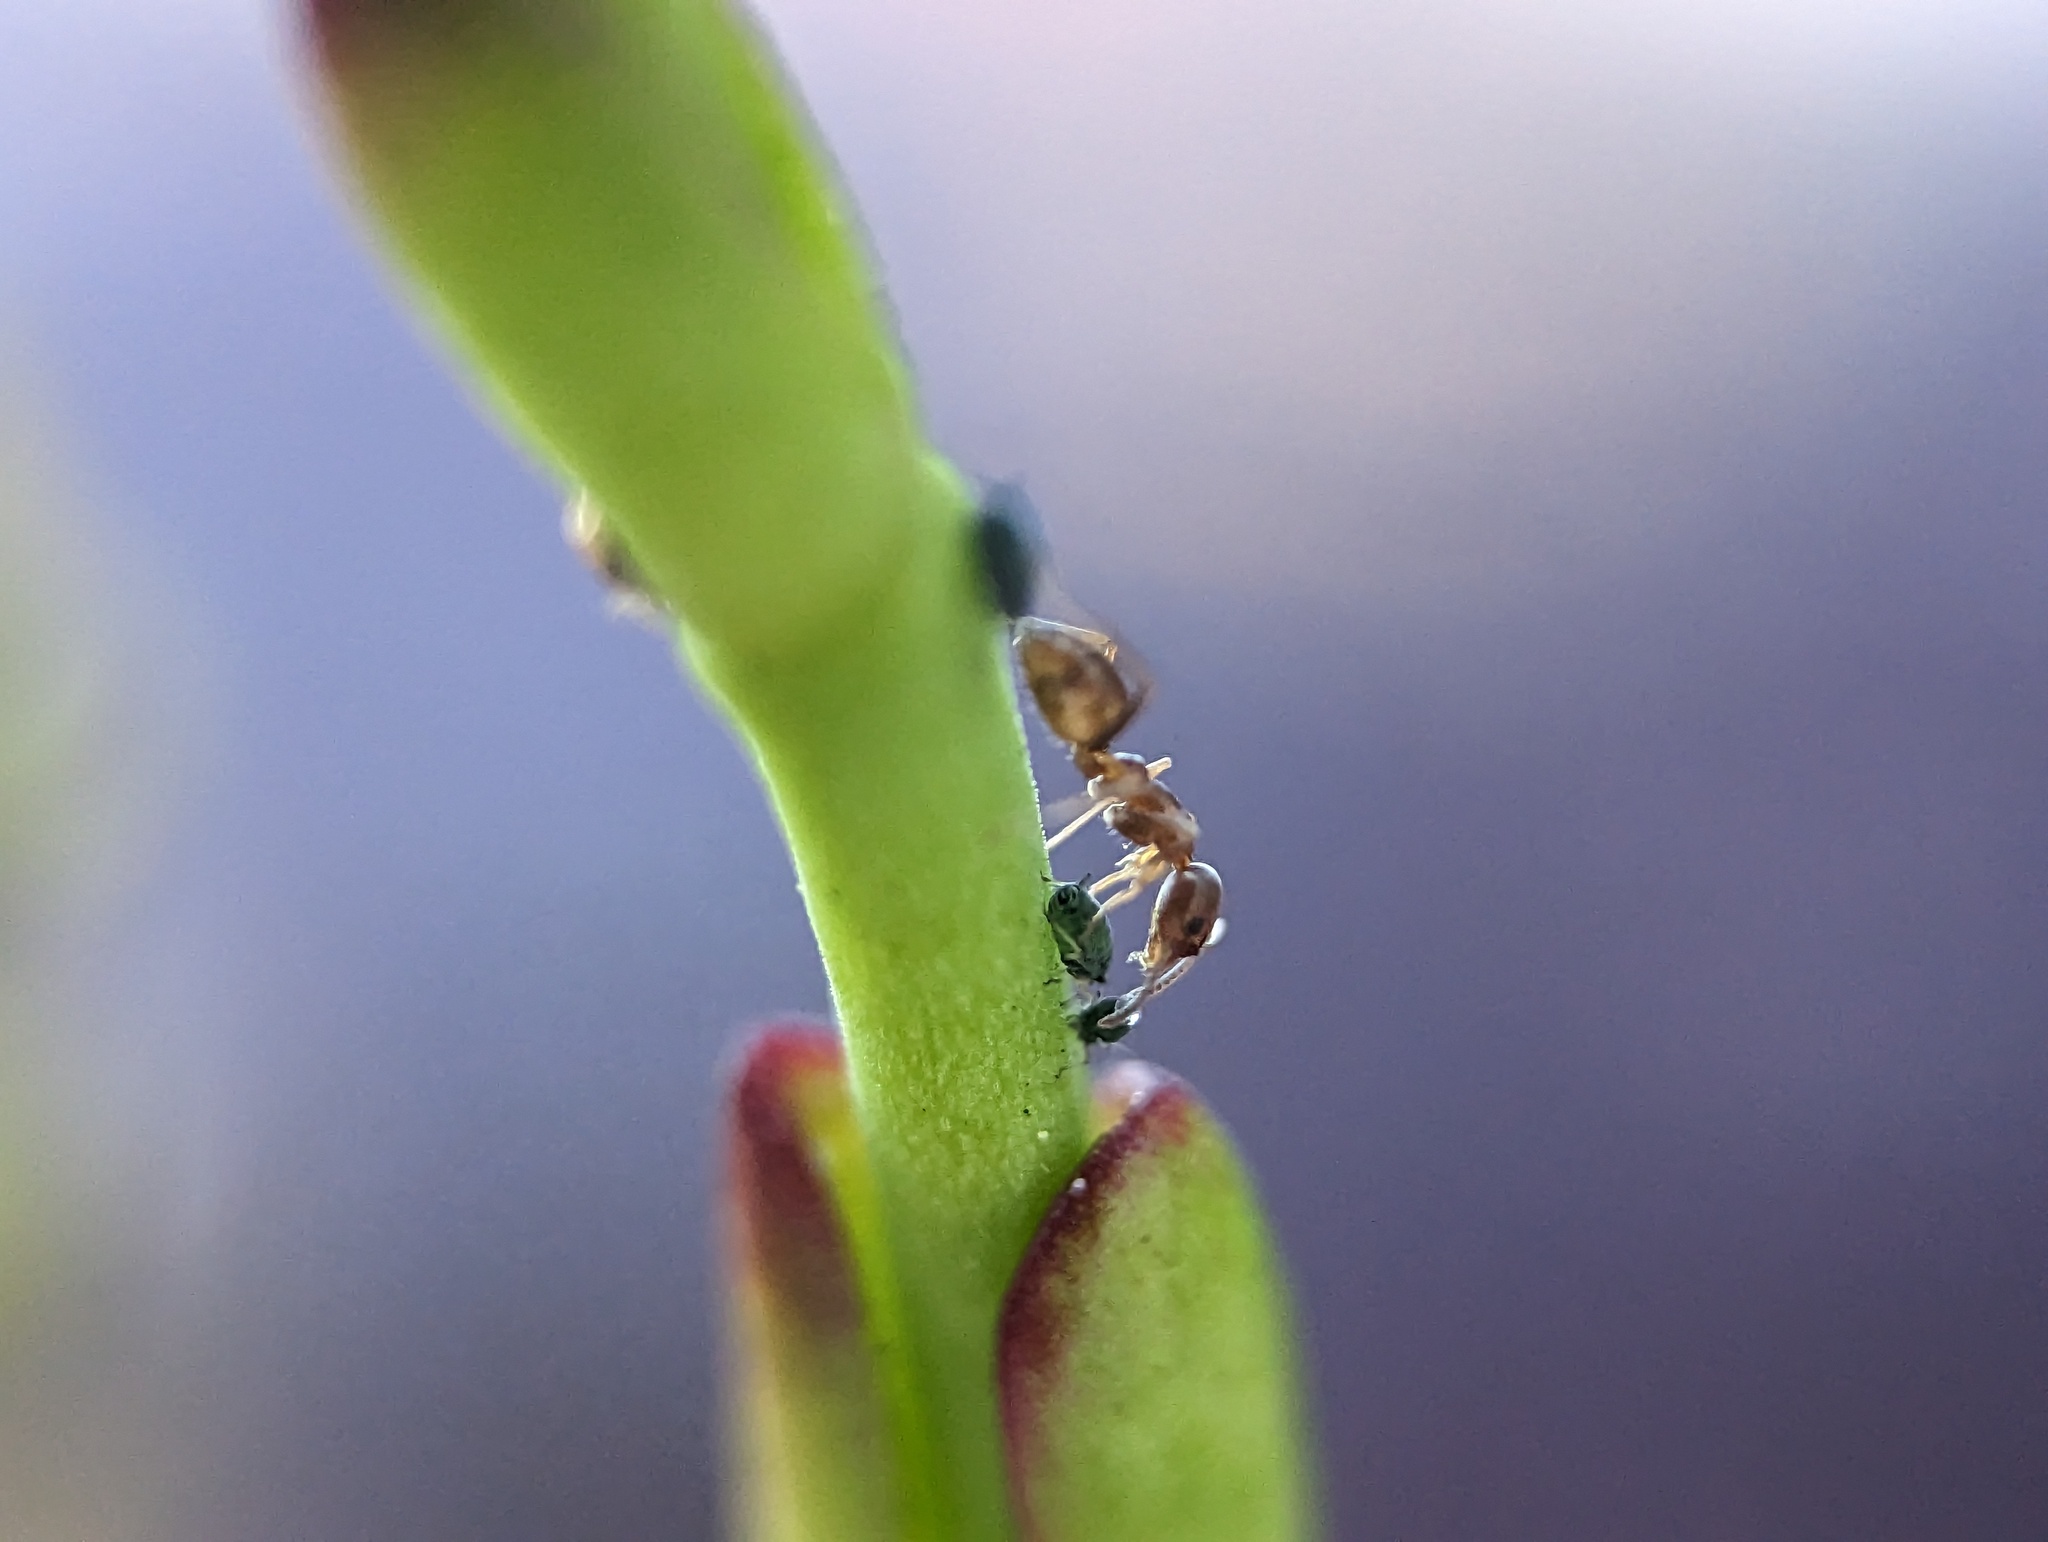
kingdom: Animalia
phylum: Arthropoda
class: Insecta
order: Hymenoptera
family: Formicidae
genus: Linepithema
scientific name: Linepithema humile
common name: Argentine ant
